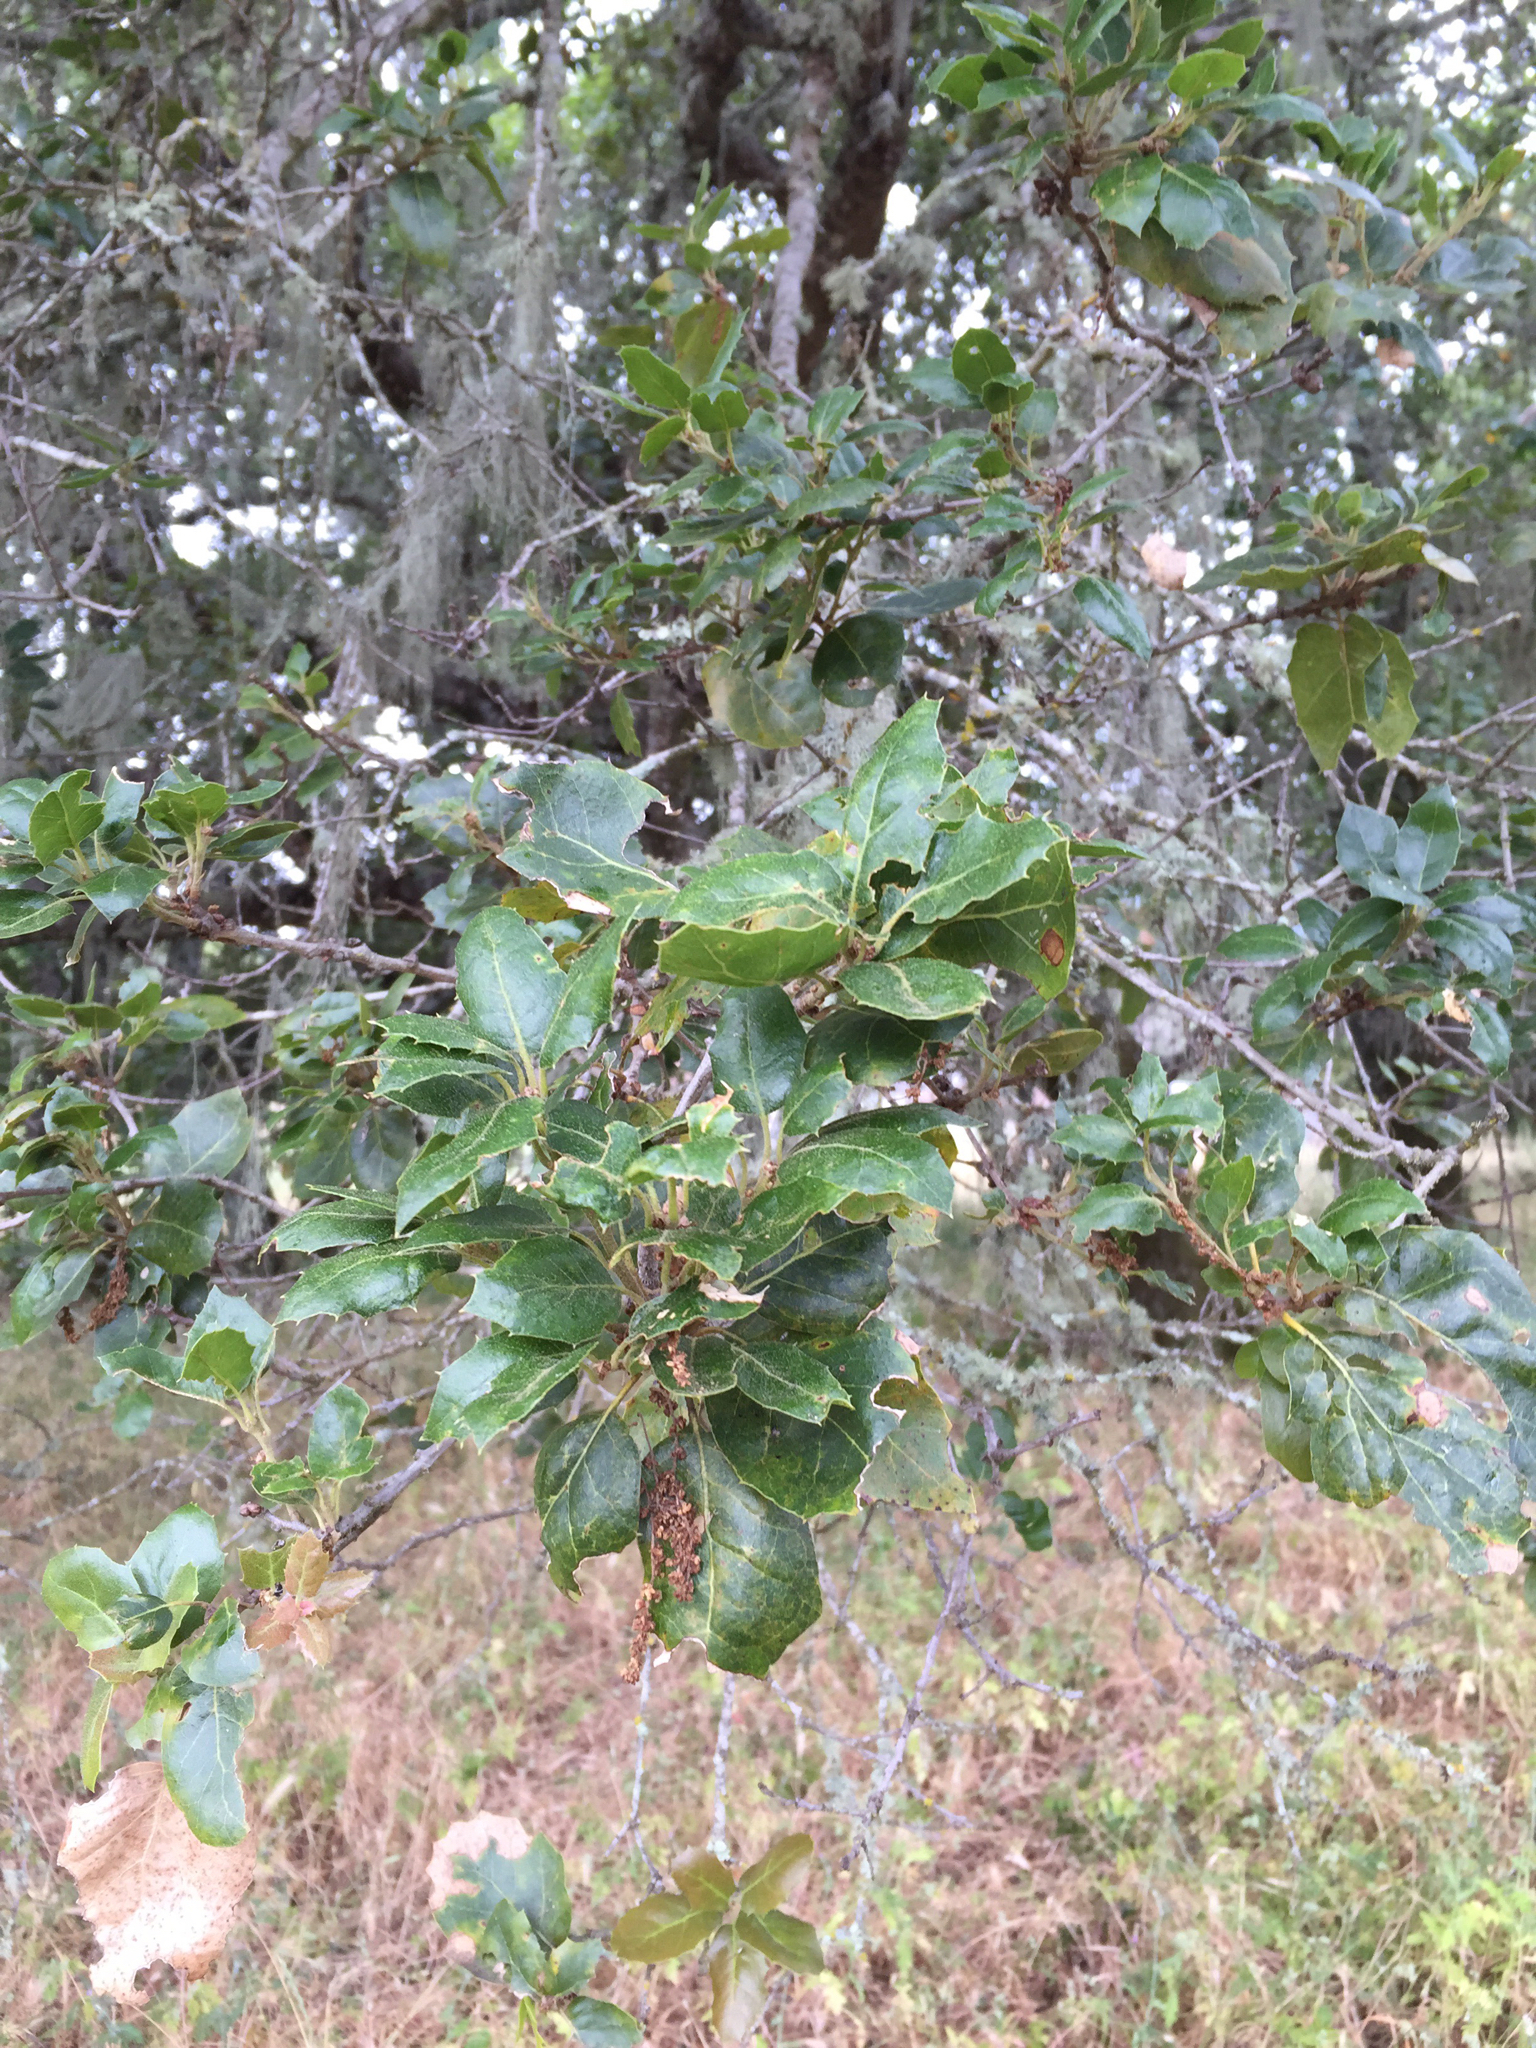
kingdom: Plantae
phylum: Tracheophyta
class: Magnoliopsida
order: Fagales
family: Fagaceae
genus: Quercus
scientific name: Quercus agrifolia
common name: California live oak
